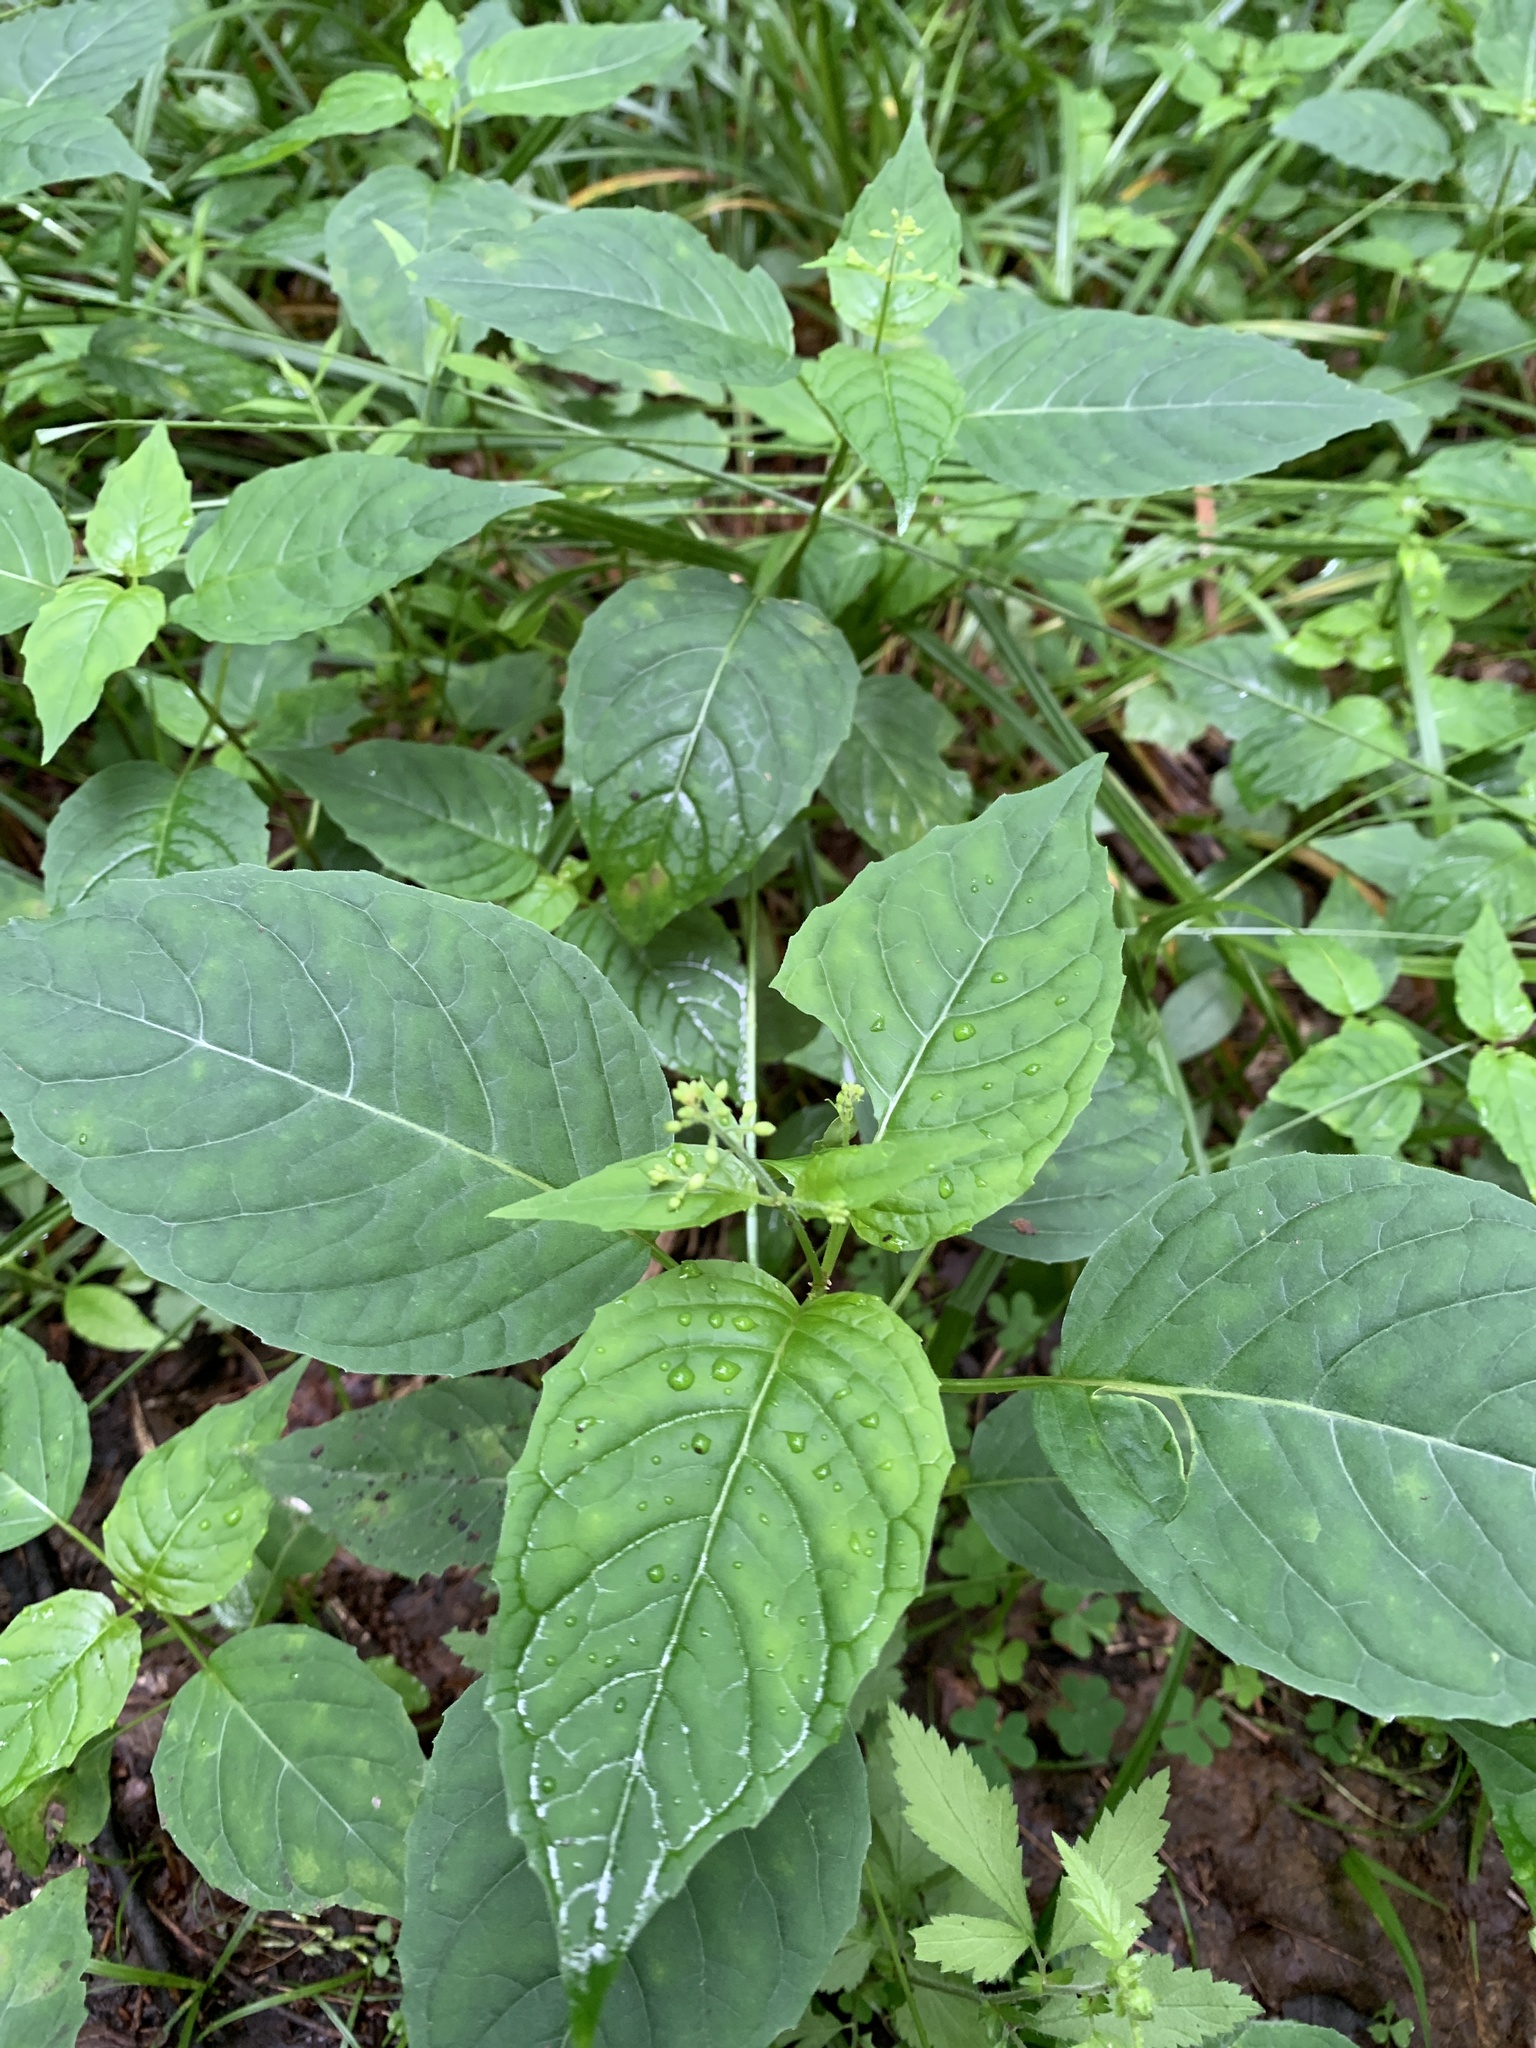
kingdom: Plantae
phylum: Tracheophyta
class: Magnoliopsida
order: Myrtales
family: Onagraceae
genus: Circaea
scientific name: Circaea canadensis
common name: Broad-leaved enchanter's nightshade
